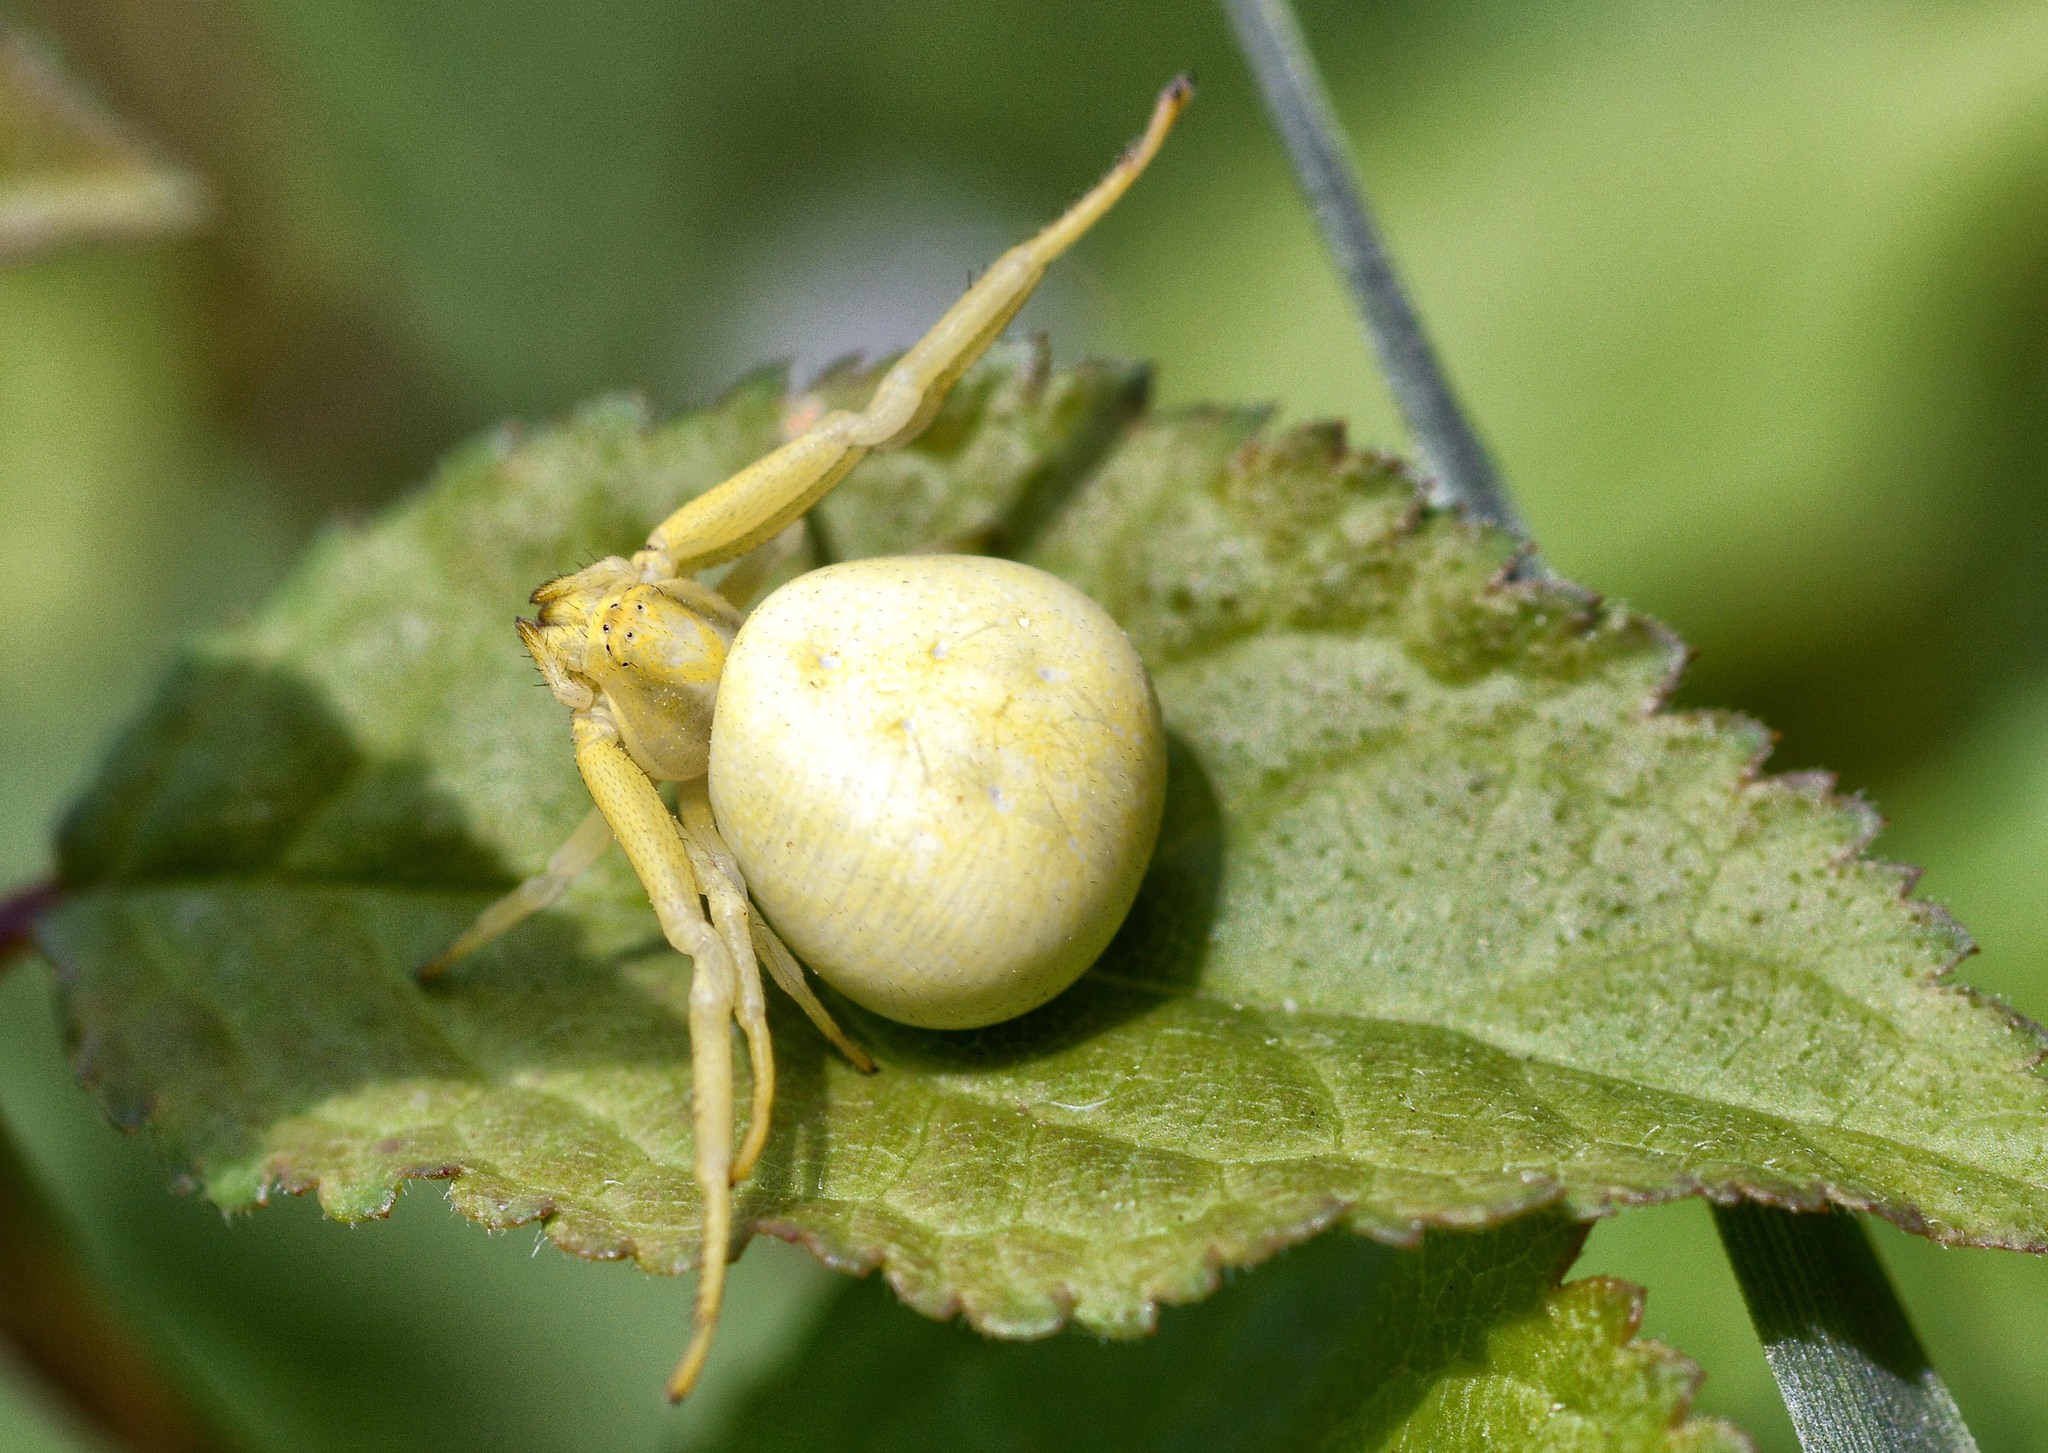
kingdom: Animalia
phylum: Arthropoda
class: Arachnida
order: Araneae
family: Thomisidae
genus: Misumena
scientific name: Misumena vatia
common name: Goldenrod crab spider
